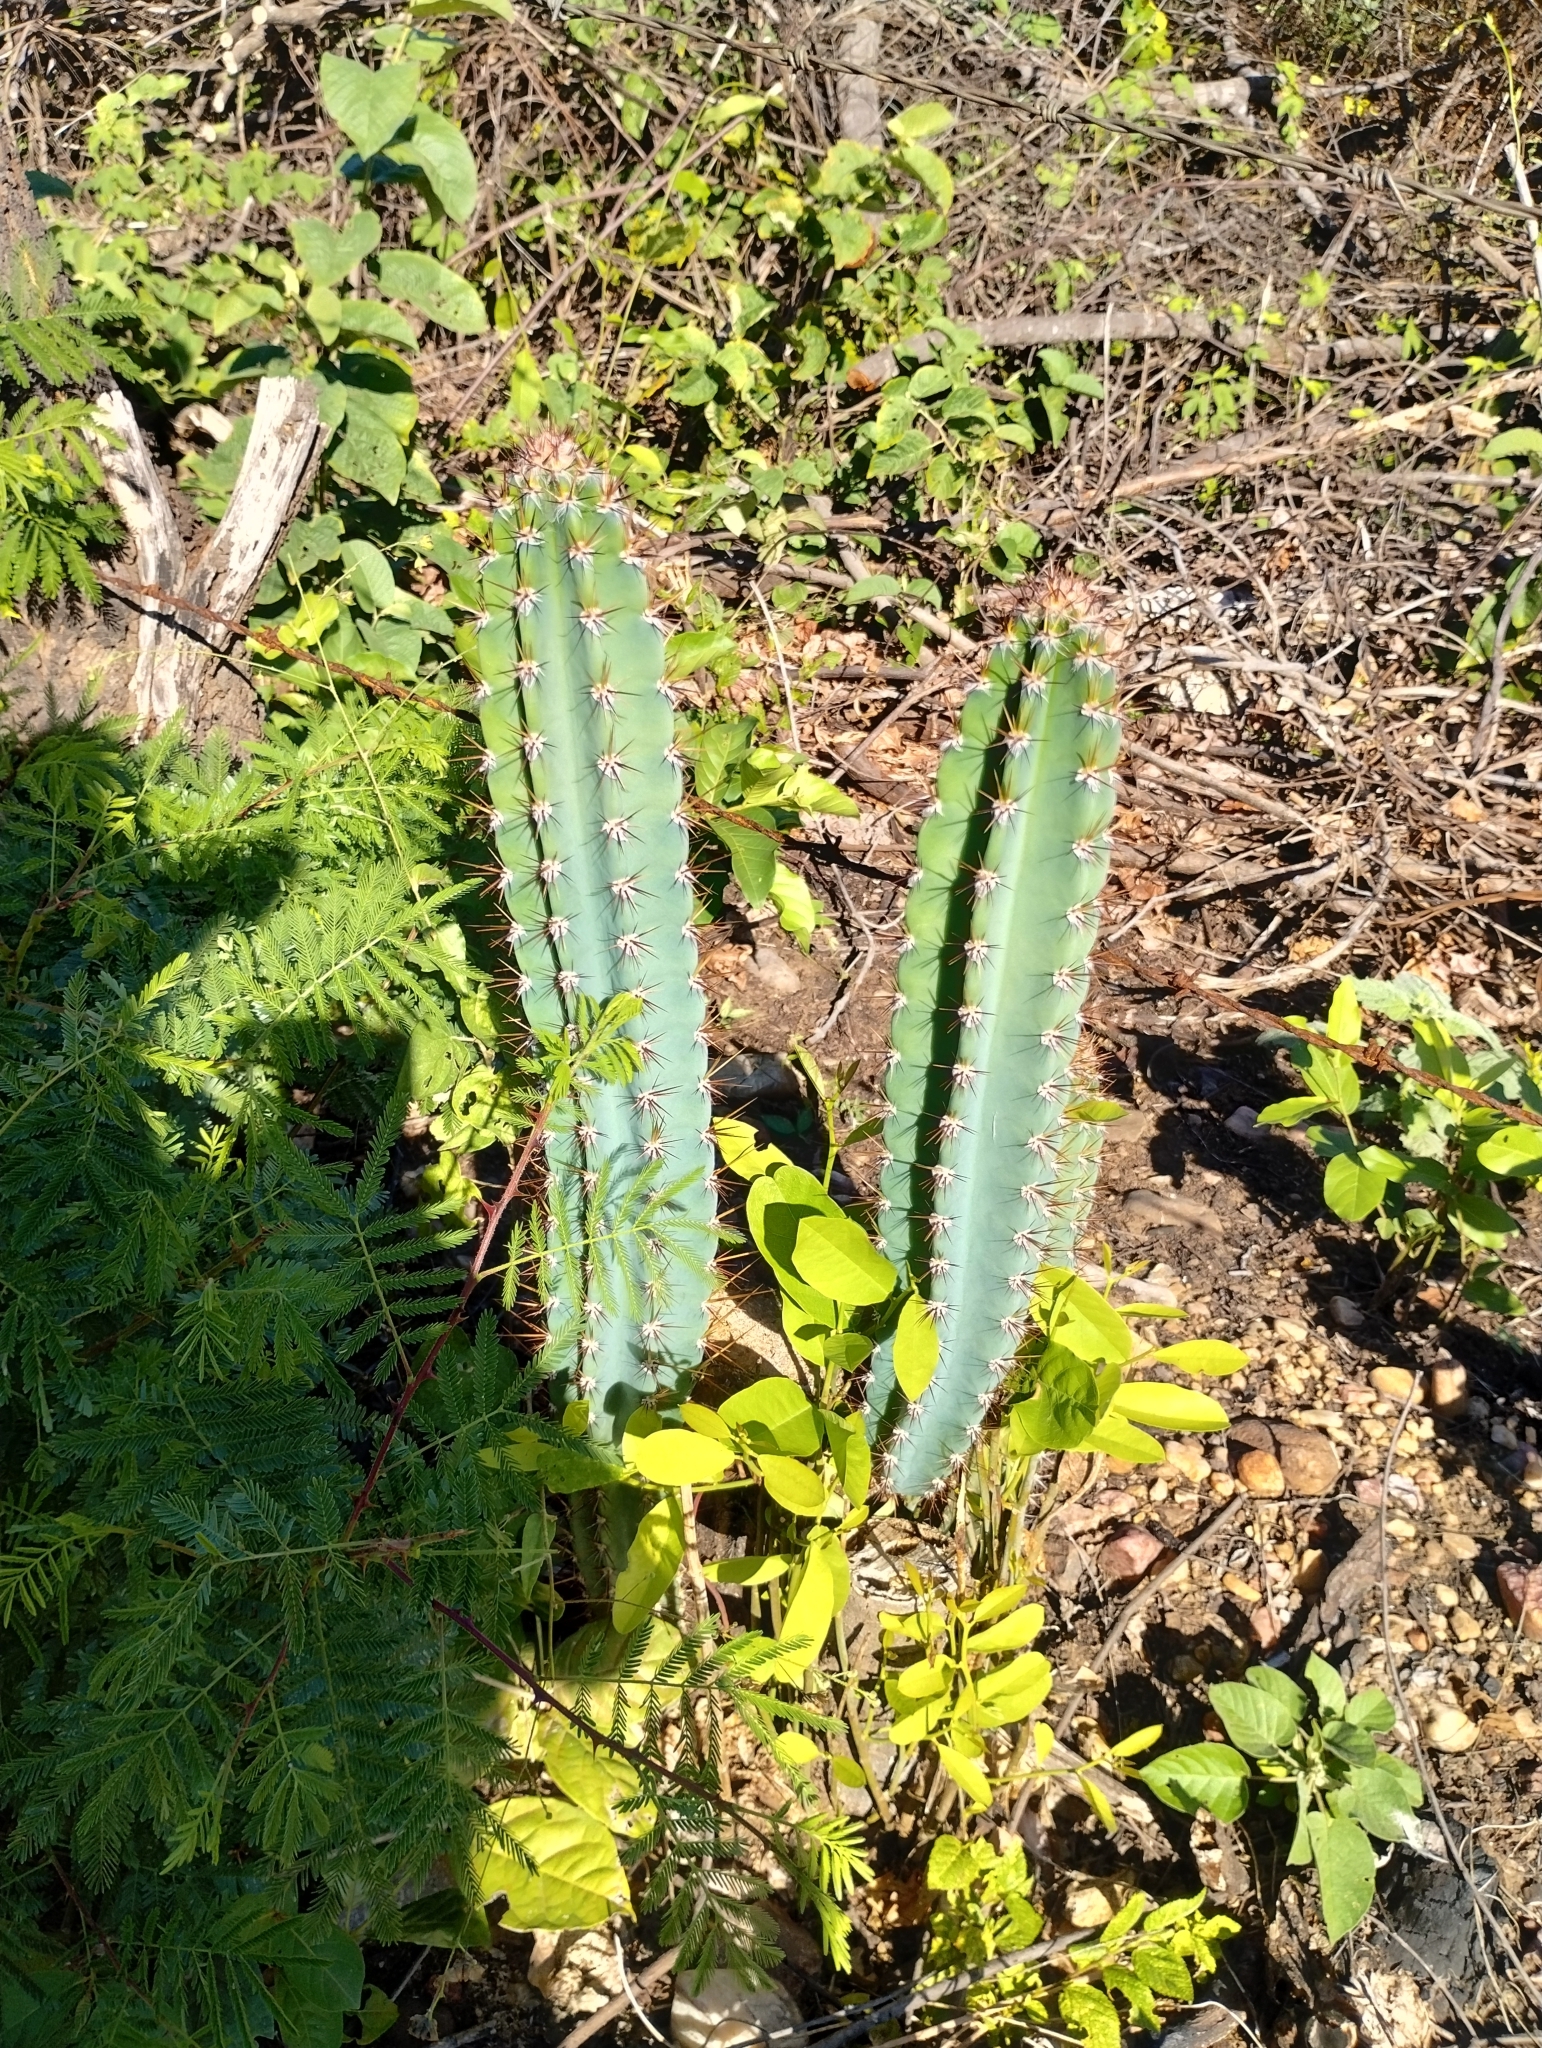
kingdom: Plantae
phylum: Tracheophyta
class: Magnoliopsida
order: Caryophyllales
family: Cactaceae
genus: Cereus
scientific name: Cereus jamacaru
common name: Queen-of-the-night
